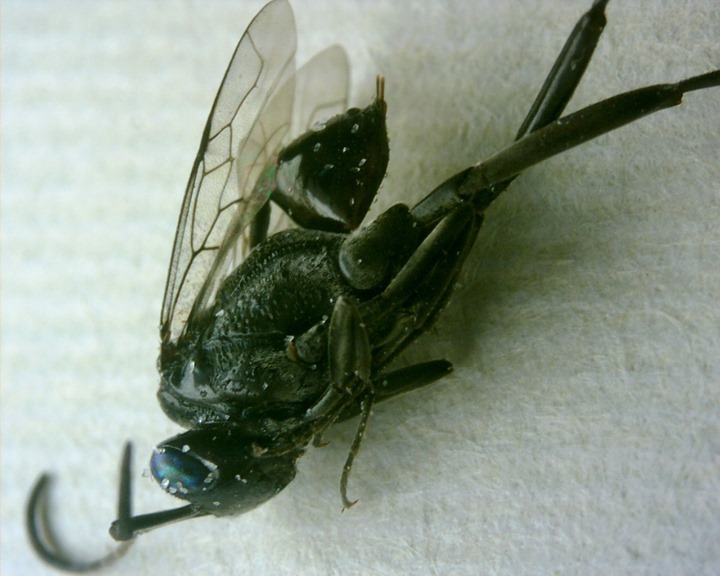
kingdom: Animalia
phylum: Arthropoda
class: Insecta
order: Hymenoptera
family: Evaniidae
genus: Evania
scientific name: Evania appendigaster
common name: Ensign wasp
